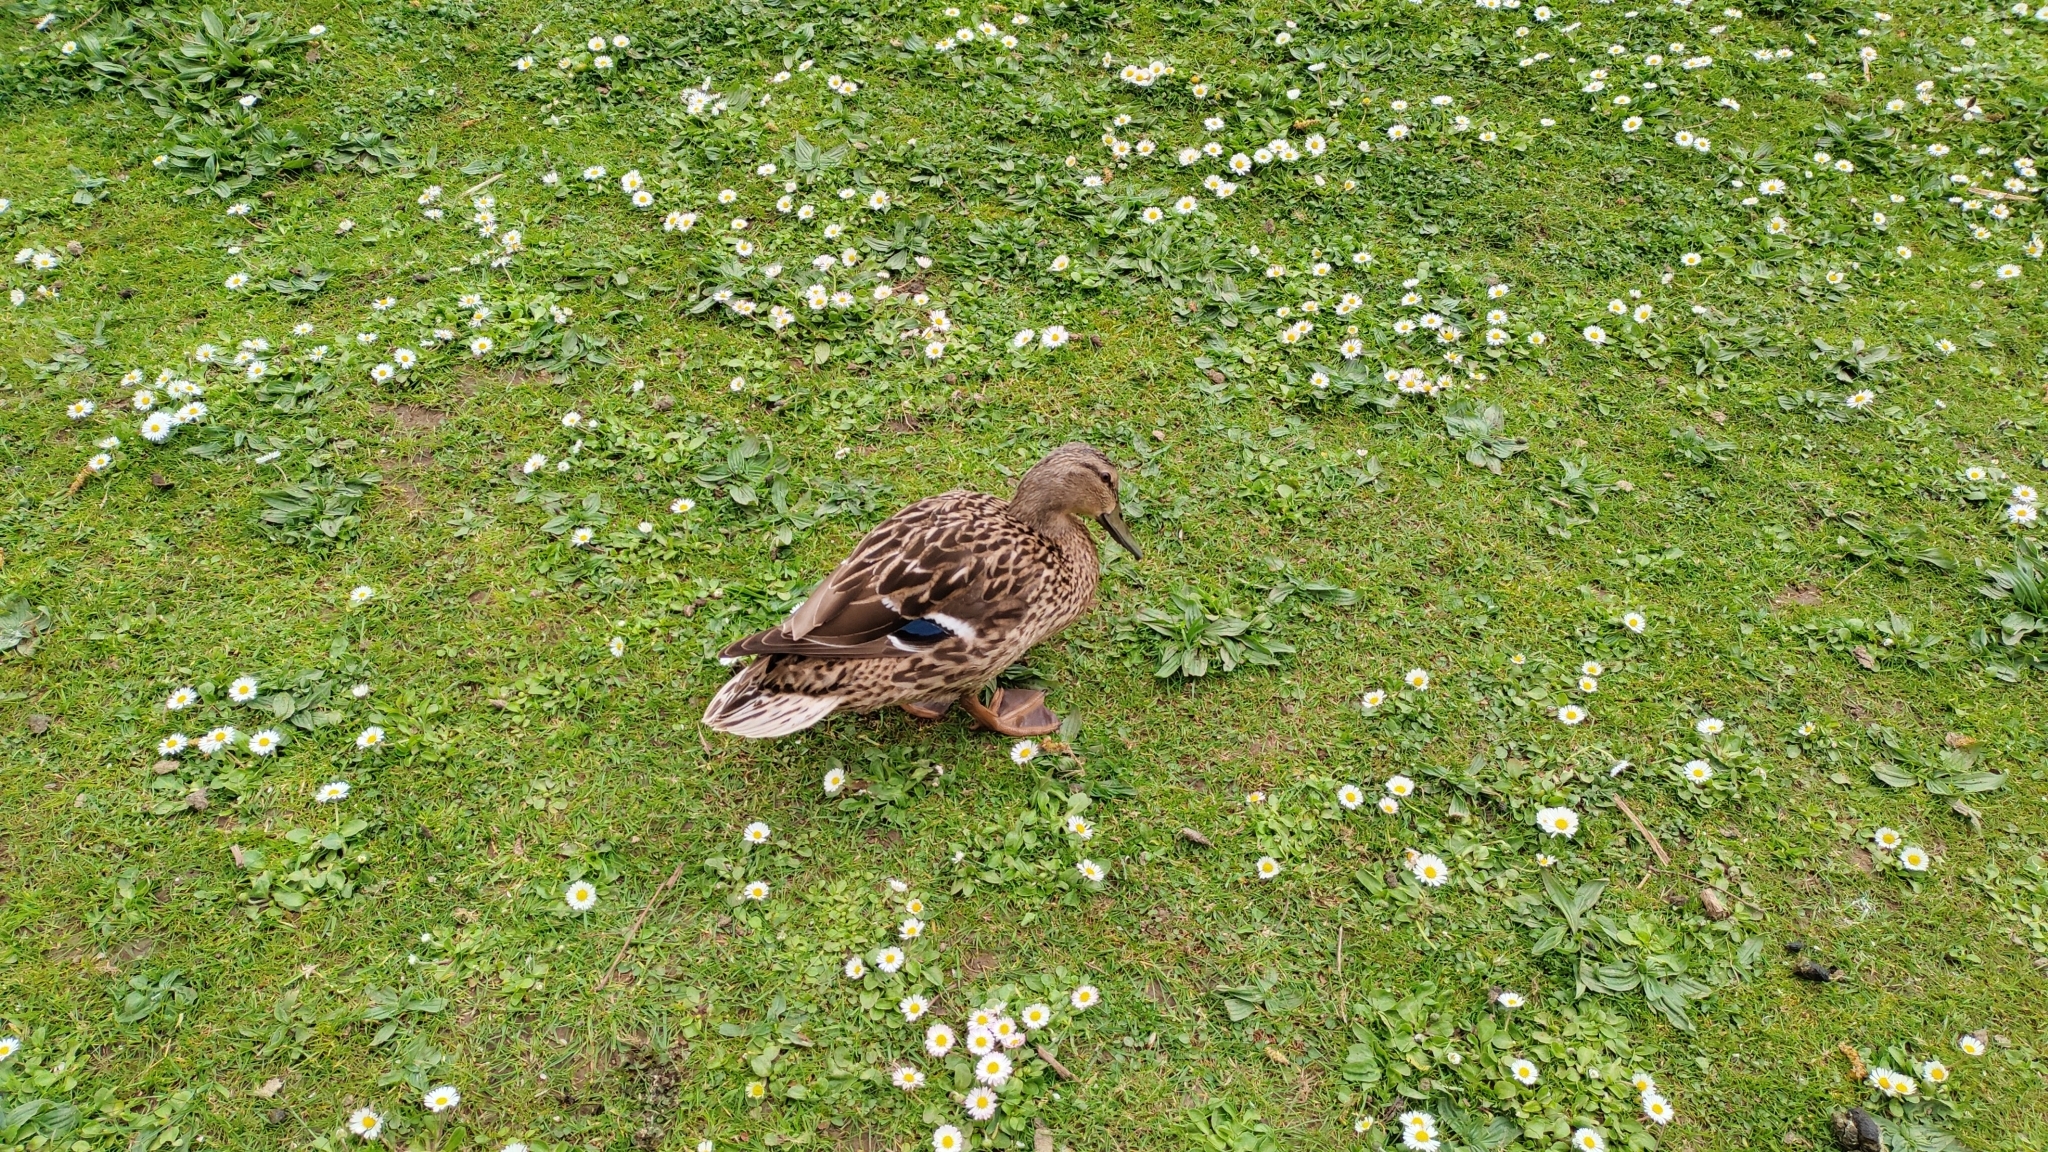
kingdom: Animalia
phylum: Chordata
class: Aves
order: Anseriformes
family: Anatidae
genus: Anas
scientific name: Anas platyrhynchos
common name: Mallard
